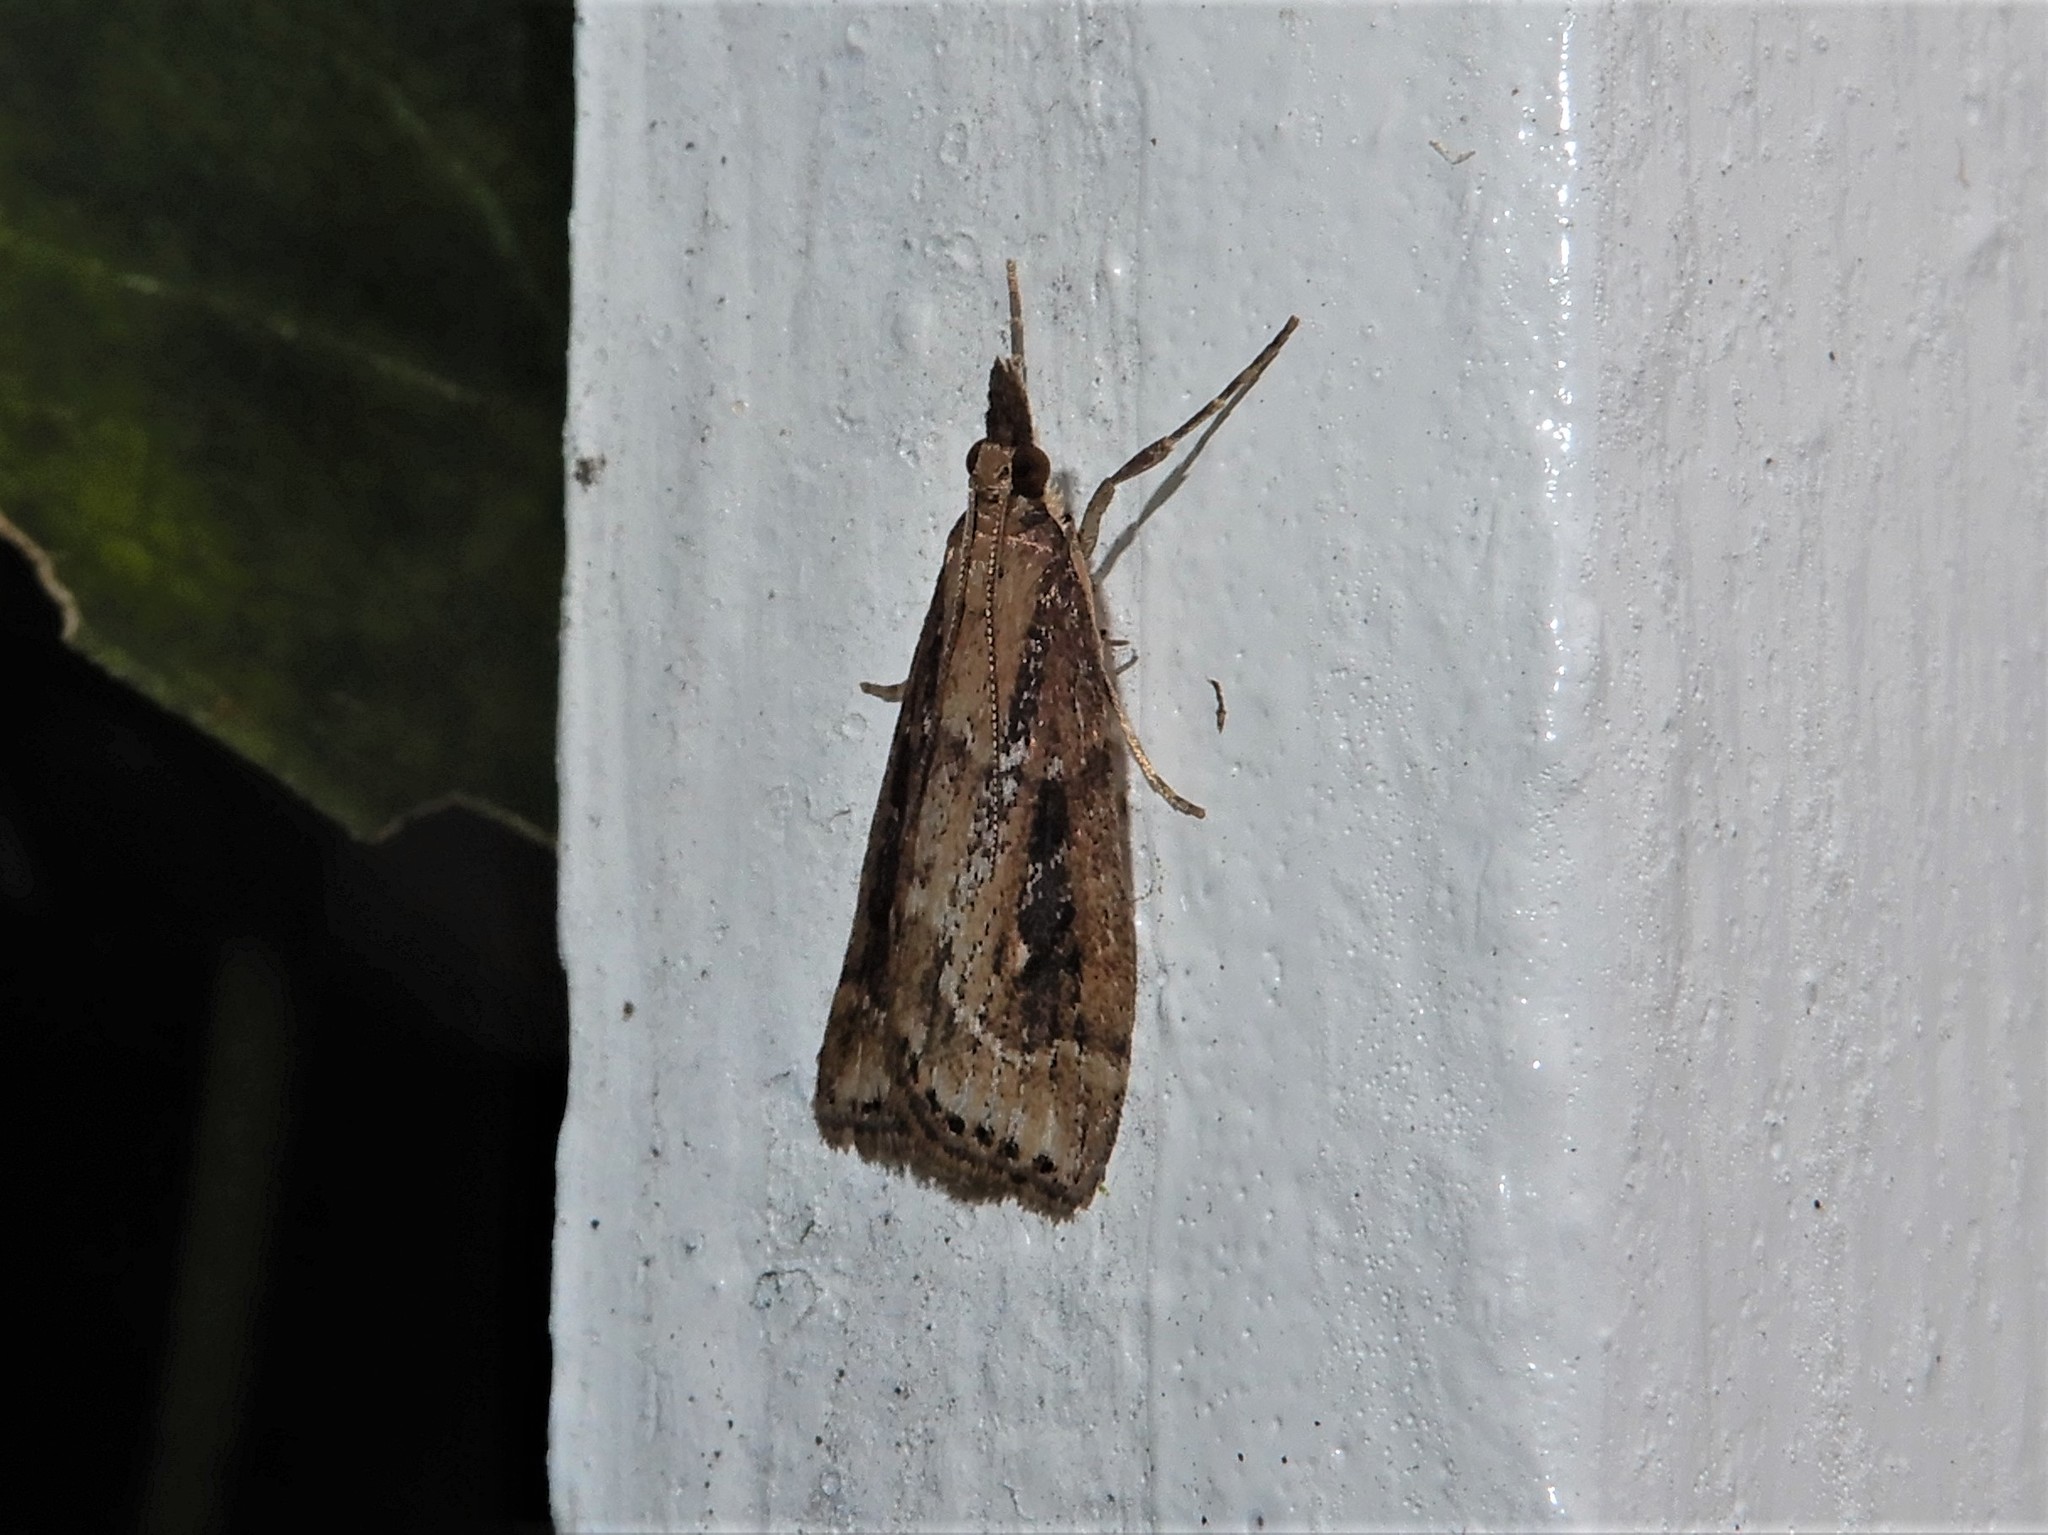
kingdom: Animalia
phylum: Arthropoda
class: Insecta
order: Lepidoptera
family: Crambidae
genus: Eudonia
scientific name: Eudonia octophora
